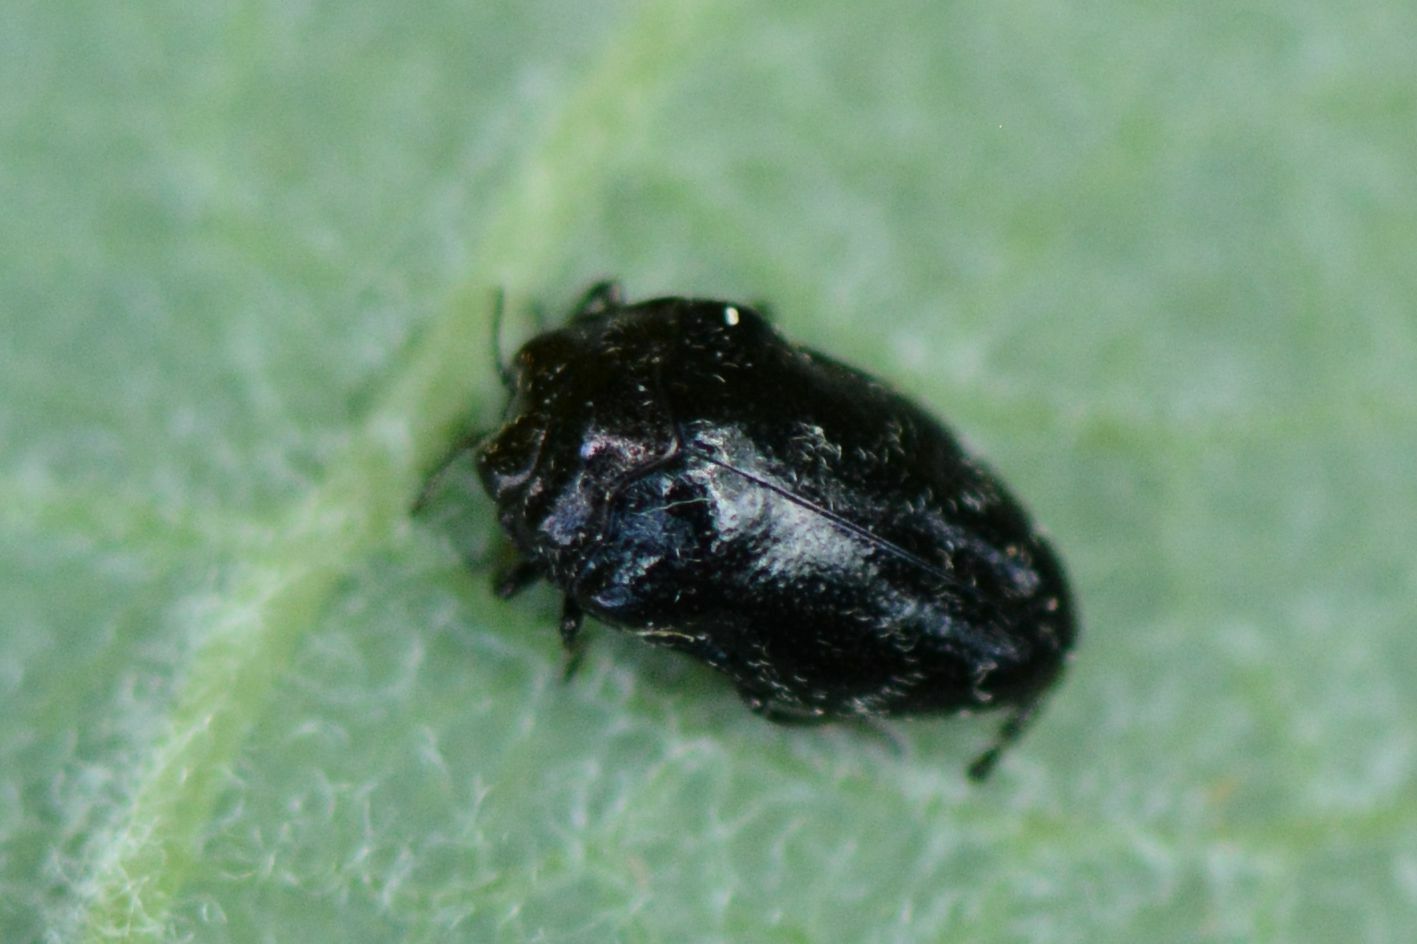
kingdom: Animalia
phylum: Arthropoda
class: Insecta
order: Coleoptera
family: Buprestidae
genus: Trachys
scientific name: Trachys minutus
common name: Metallic wood-boring beetle
